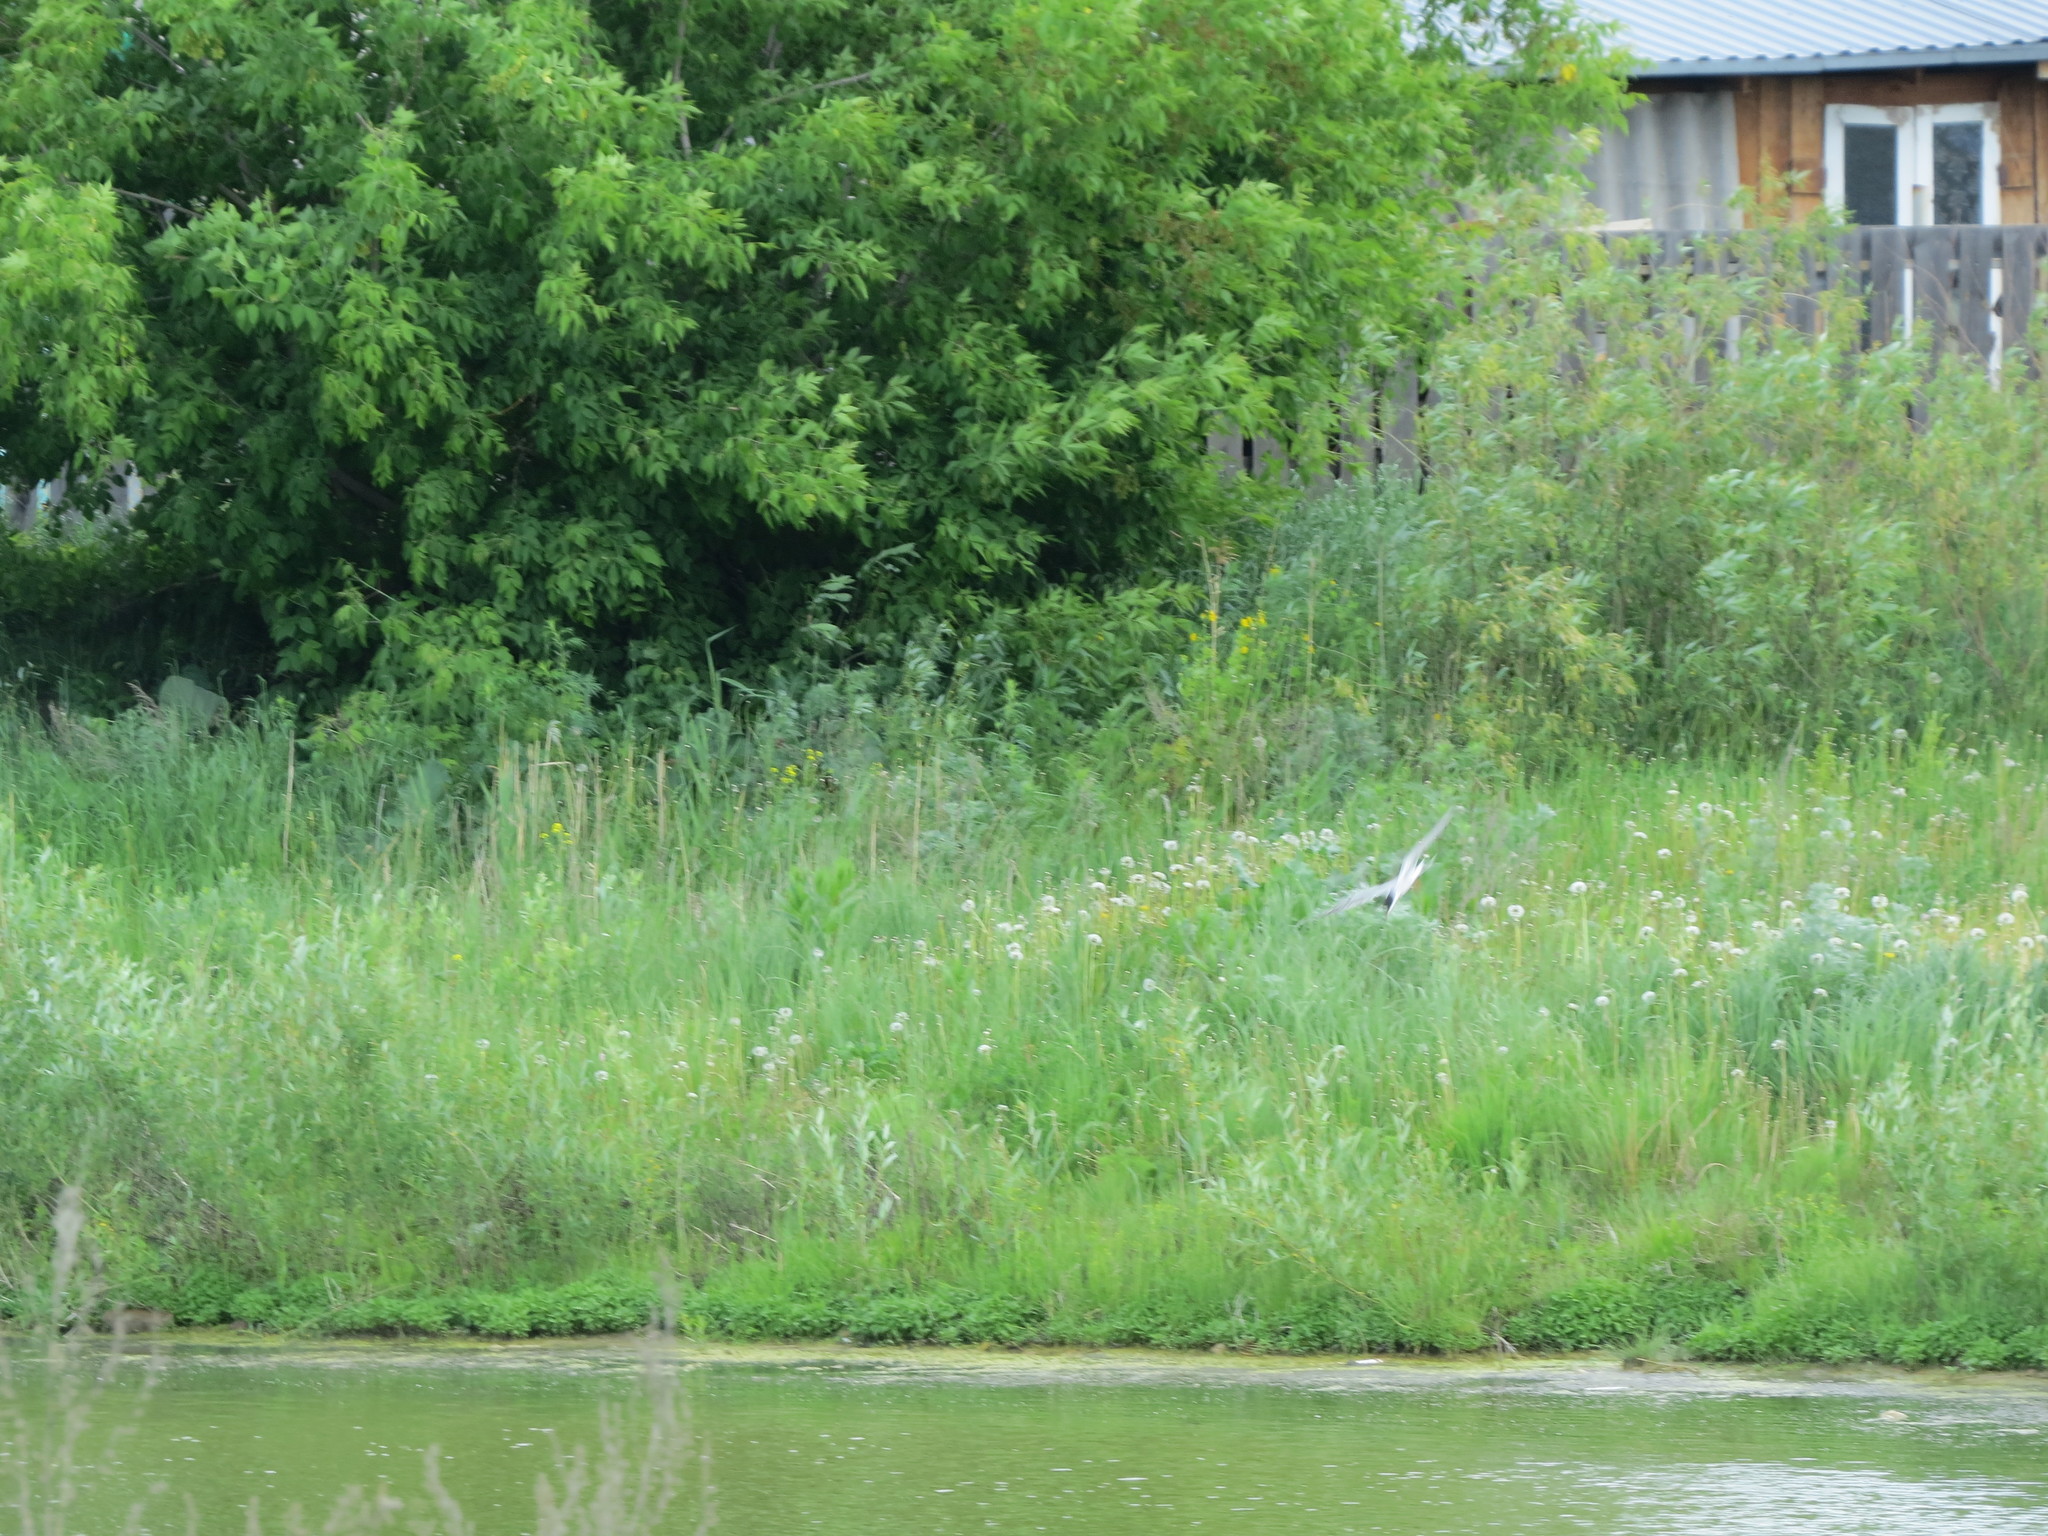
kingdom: Animalia
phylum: Chordata
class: Aves
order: Charadriiformes
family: Laridae
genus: Sterna
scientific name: Sterna hirundo
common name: Common tern
